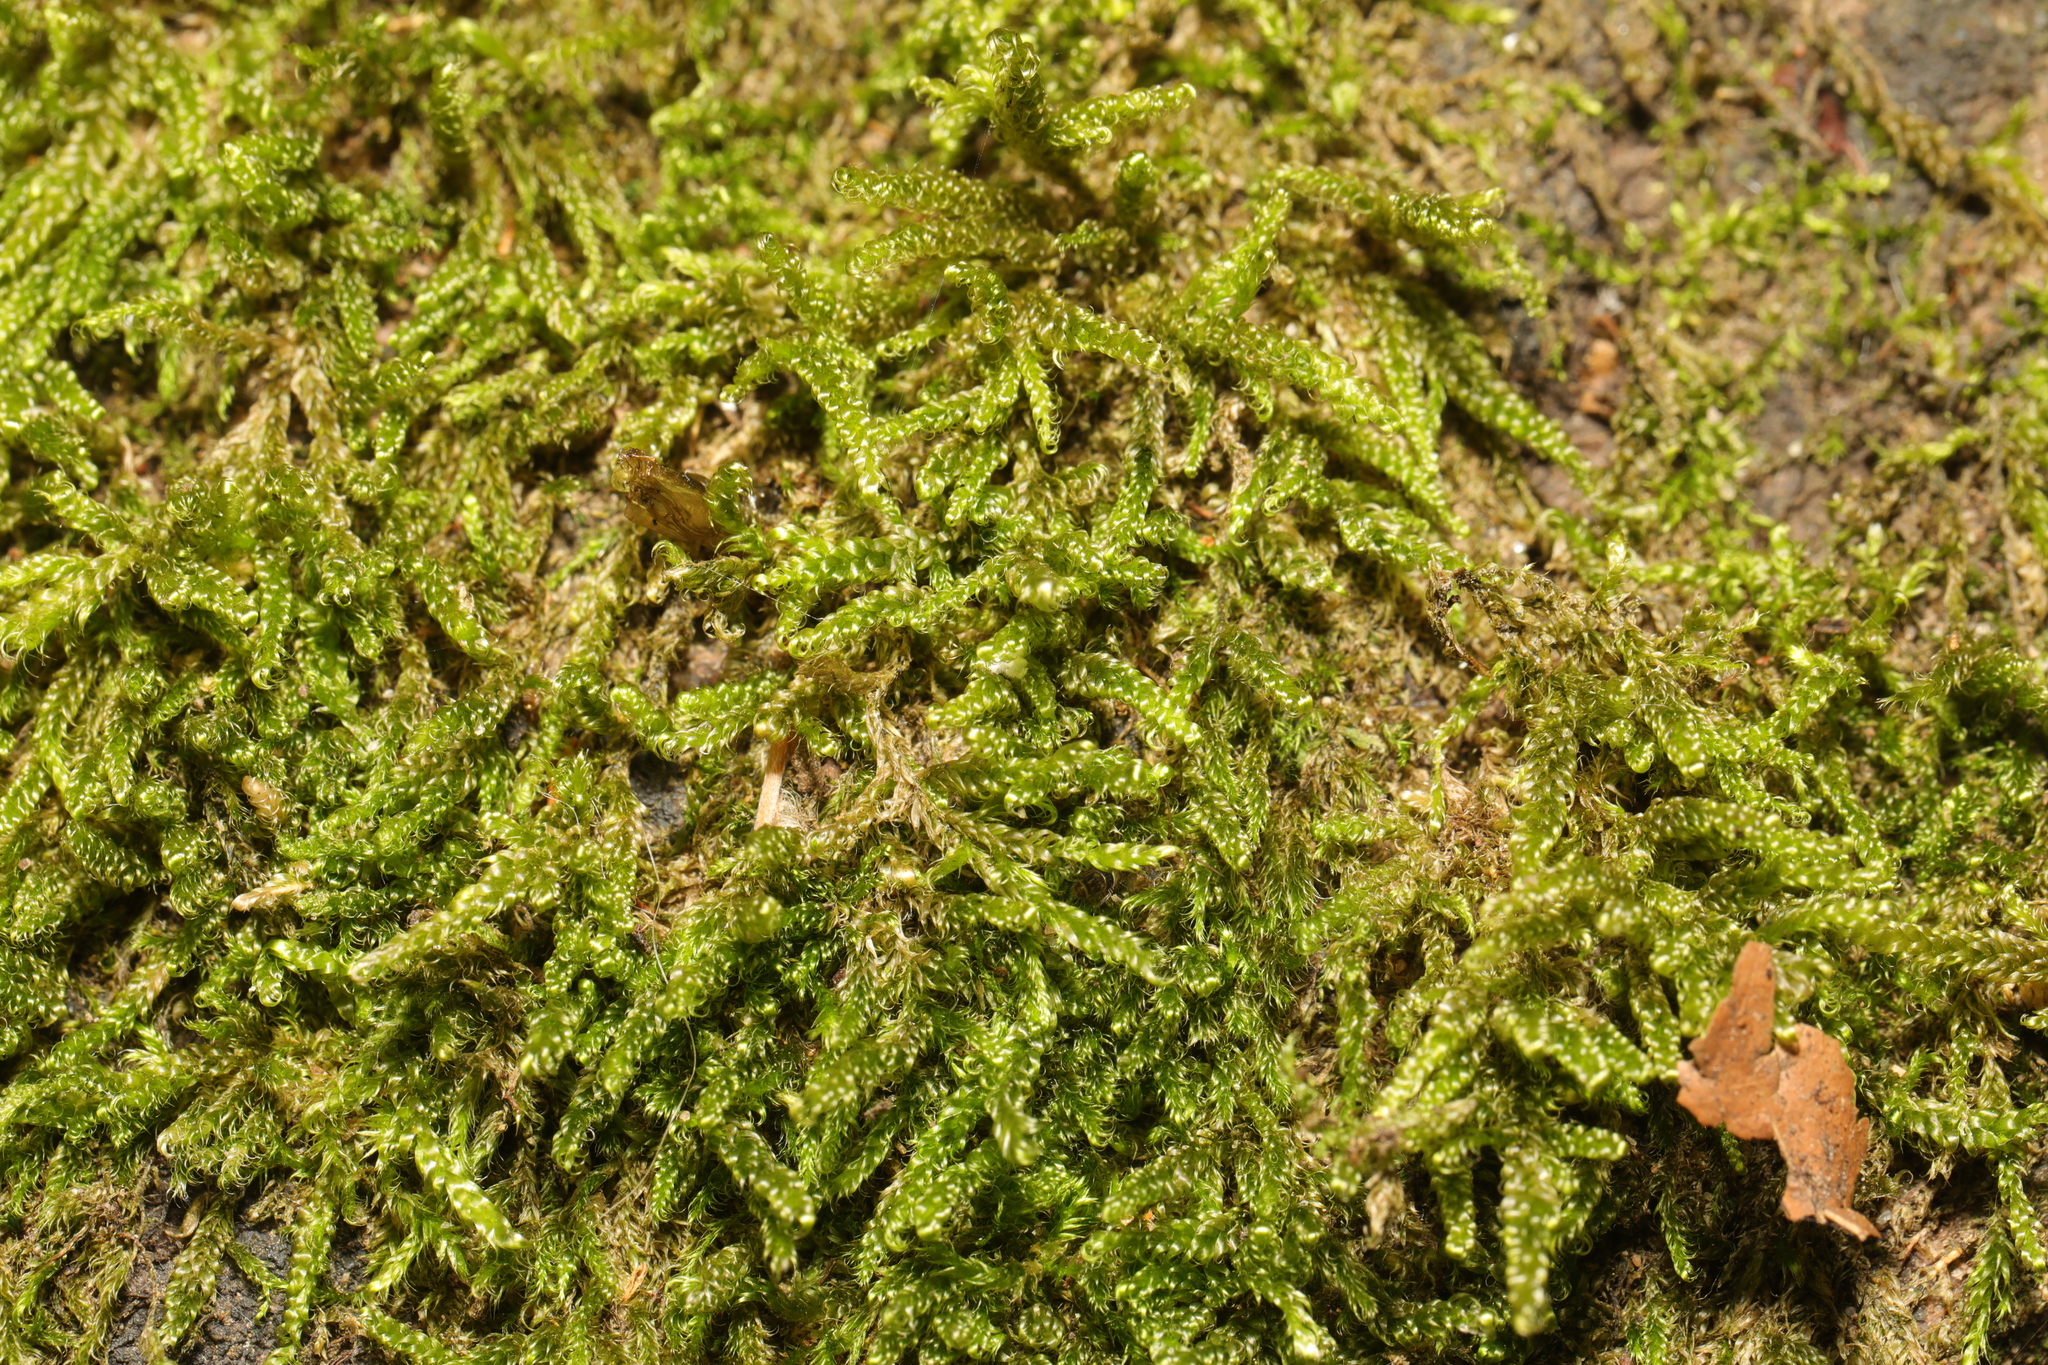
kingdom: Plantae
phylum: Bryophyta
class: Bryopsida
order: Hypnales
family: Hypnaceae
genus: Hypnum
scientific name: Hypnum cupressiforme
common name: Cypress-leaved plait-moss
